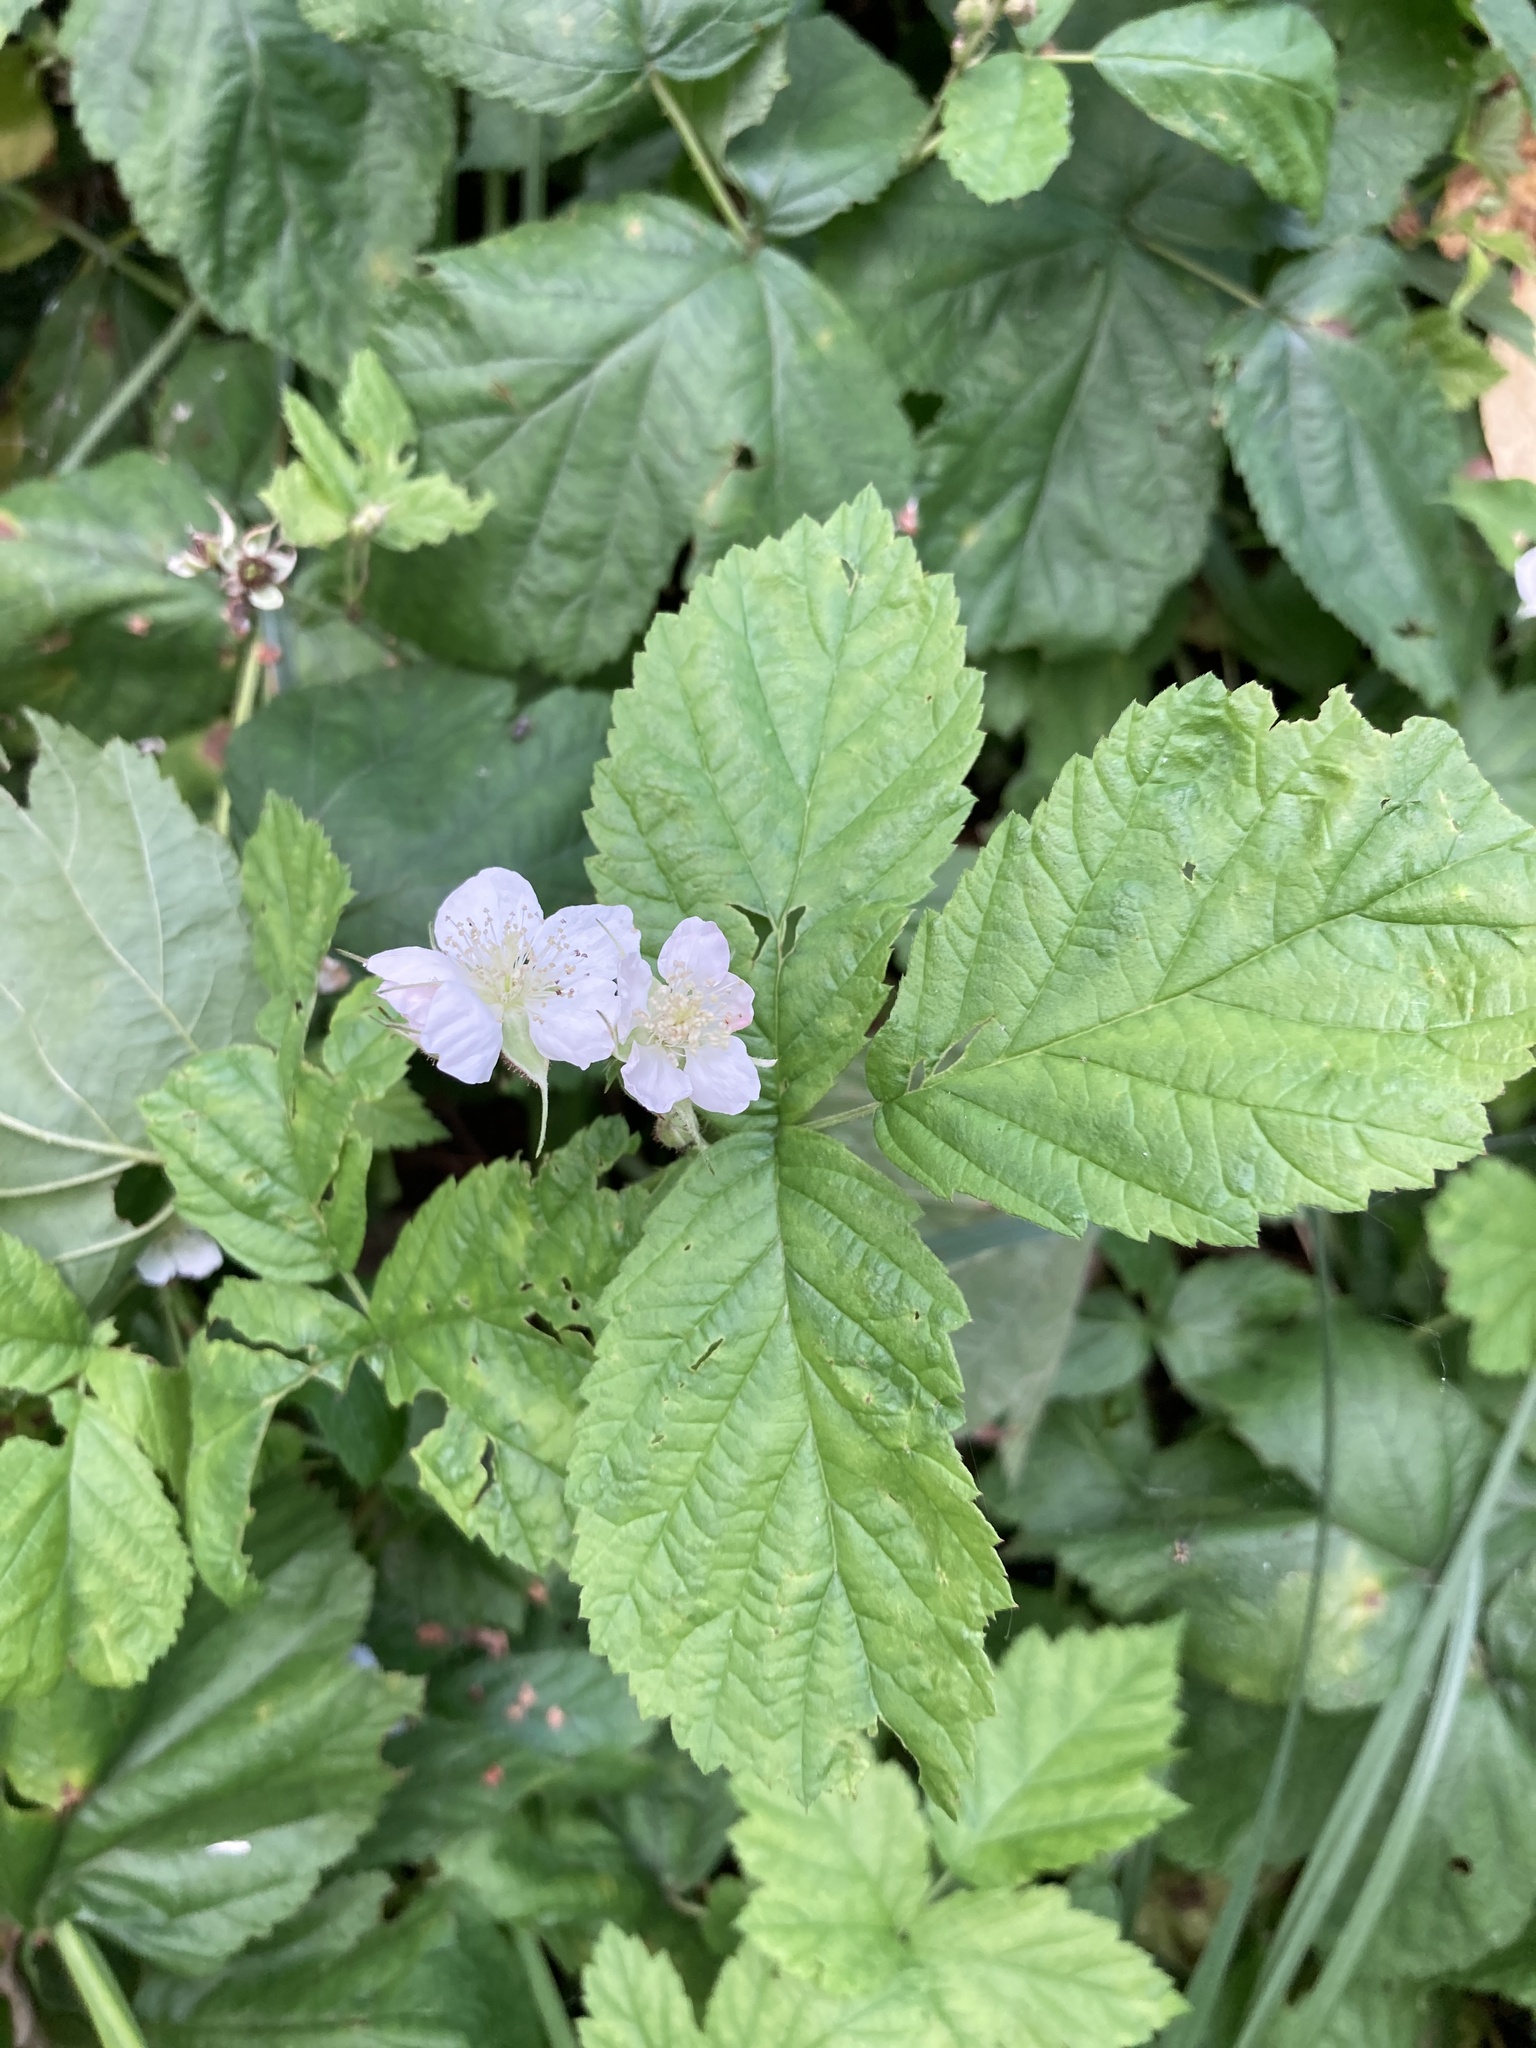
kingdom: Plantae
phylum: Tracheophyta
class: Magnoliopsida
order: Rosales
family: Rosaceae
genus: Rubus
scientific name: Rubus caesius
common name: Dewberry
